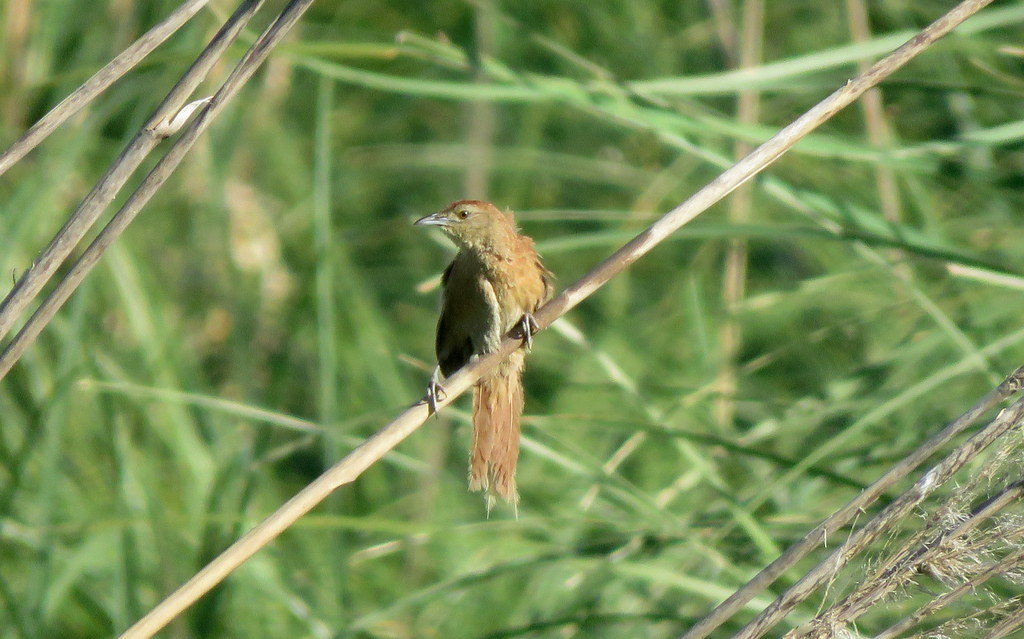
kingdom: Animalia
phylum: Chordata
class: Aves
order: Passeriformes
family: Furnariidae
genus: Phacellodomus
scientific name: Phacellodomus striaticollis
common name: Freckle-breasted thornbird
